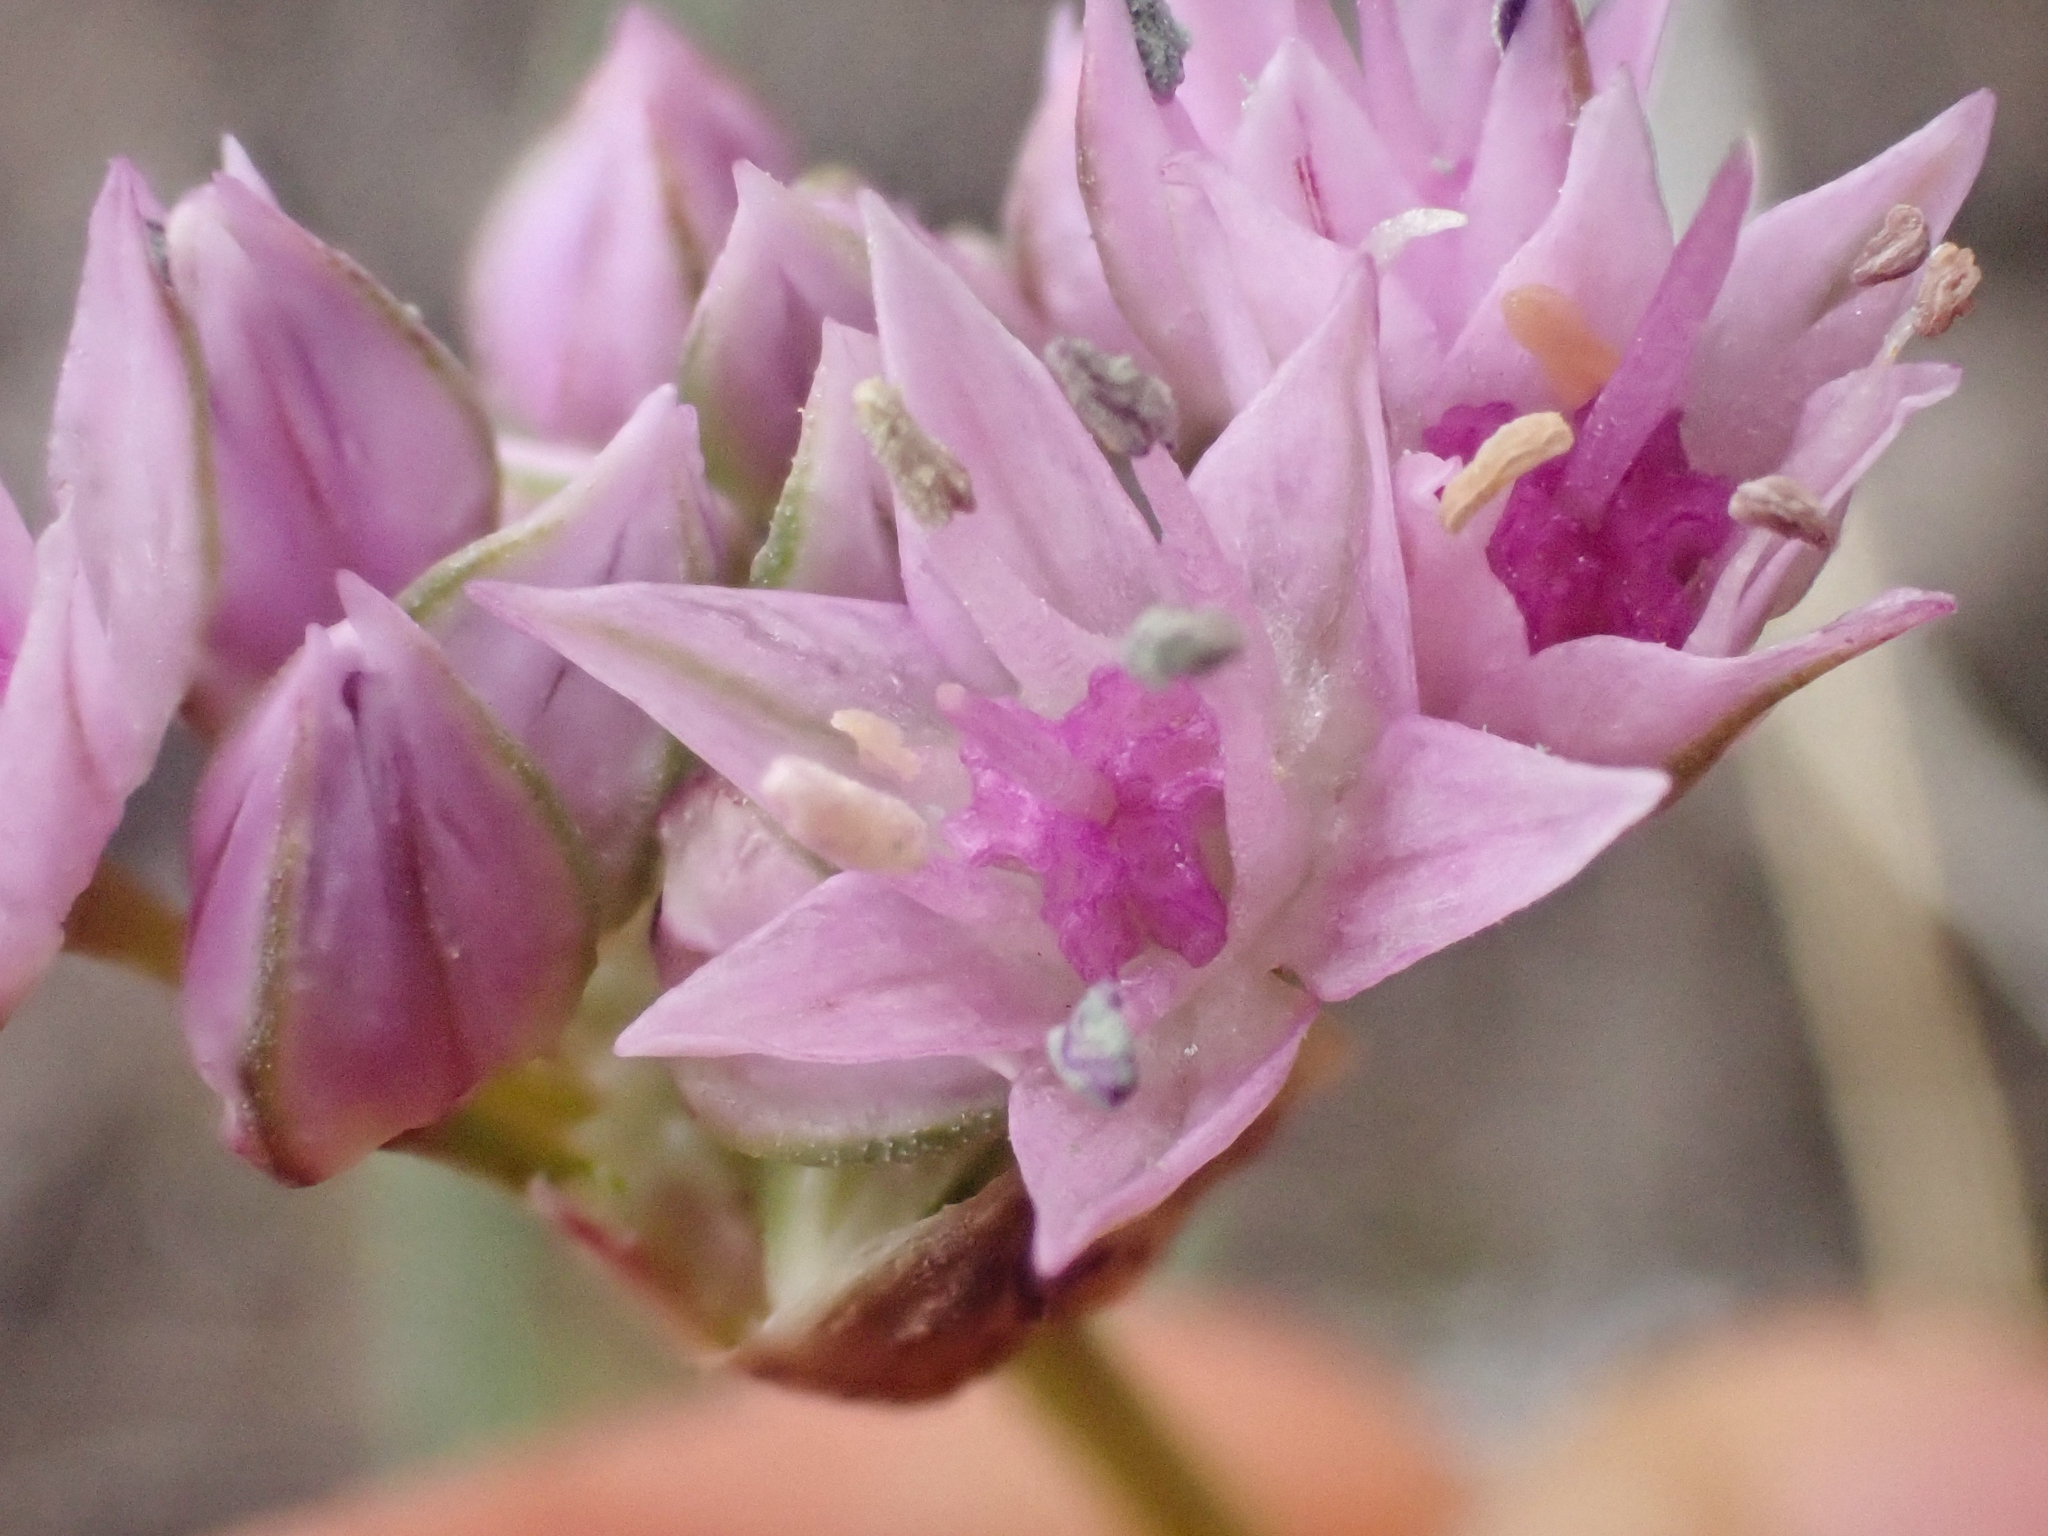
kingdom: Plantae
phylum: Tracheophyta
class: Liliopsida
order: Asparagales
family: Amaryllidaceae
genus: Allium
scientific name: Allium lemmonii
